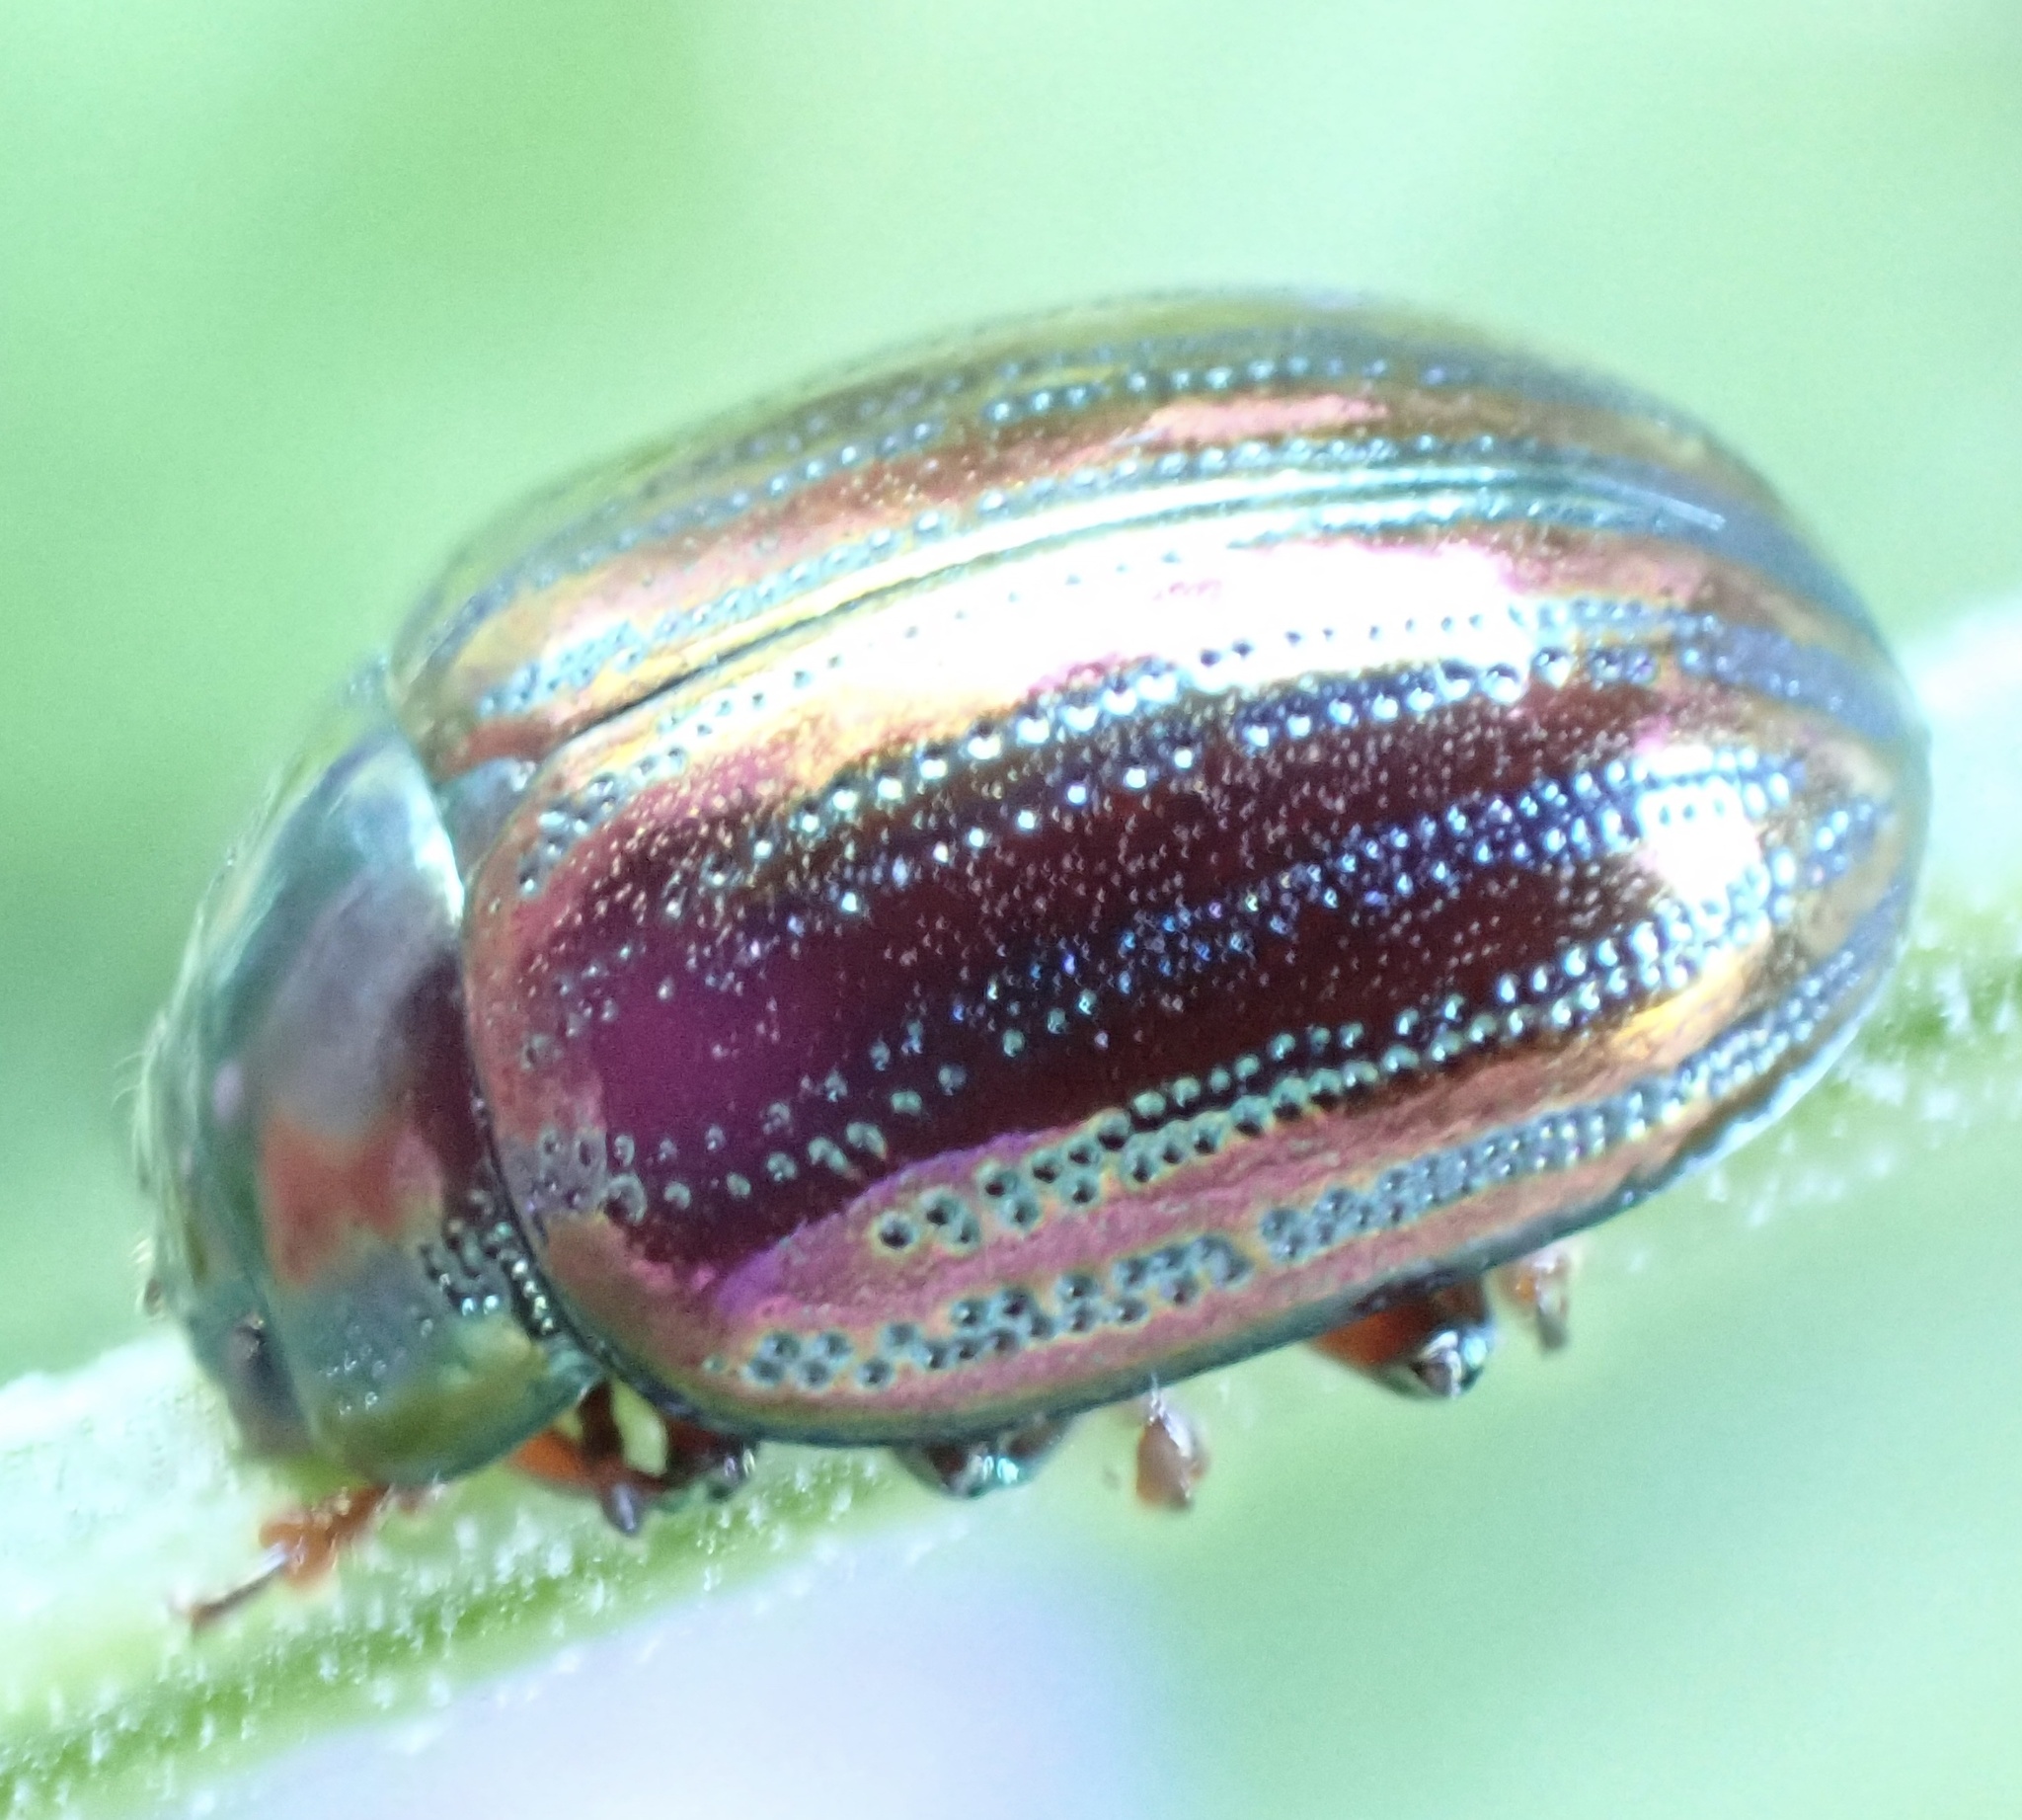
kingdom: Animalia
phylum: Arthropoda
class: Insecta
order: Coleoptera
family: Chrysomelidae
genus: Chrysolina
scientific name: Chrysolina americana
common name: Rosemary beetle
